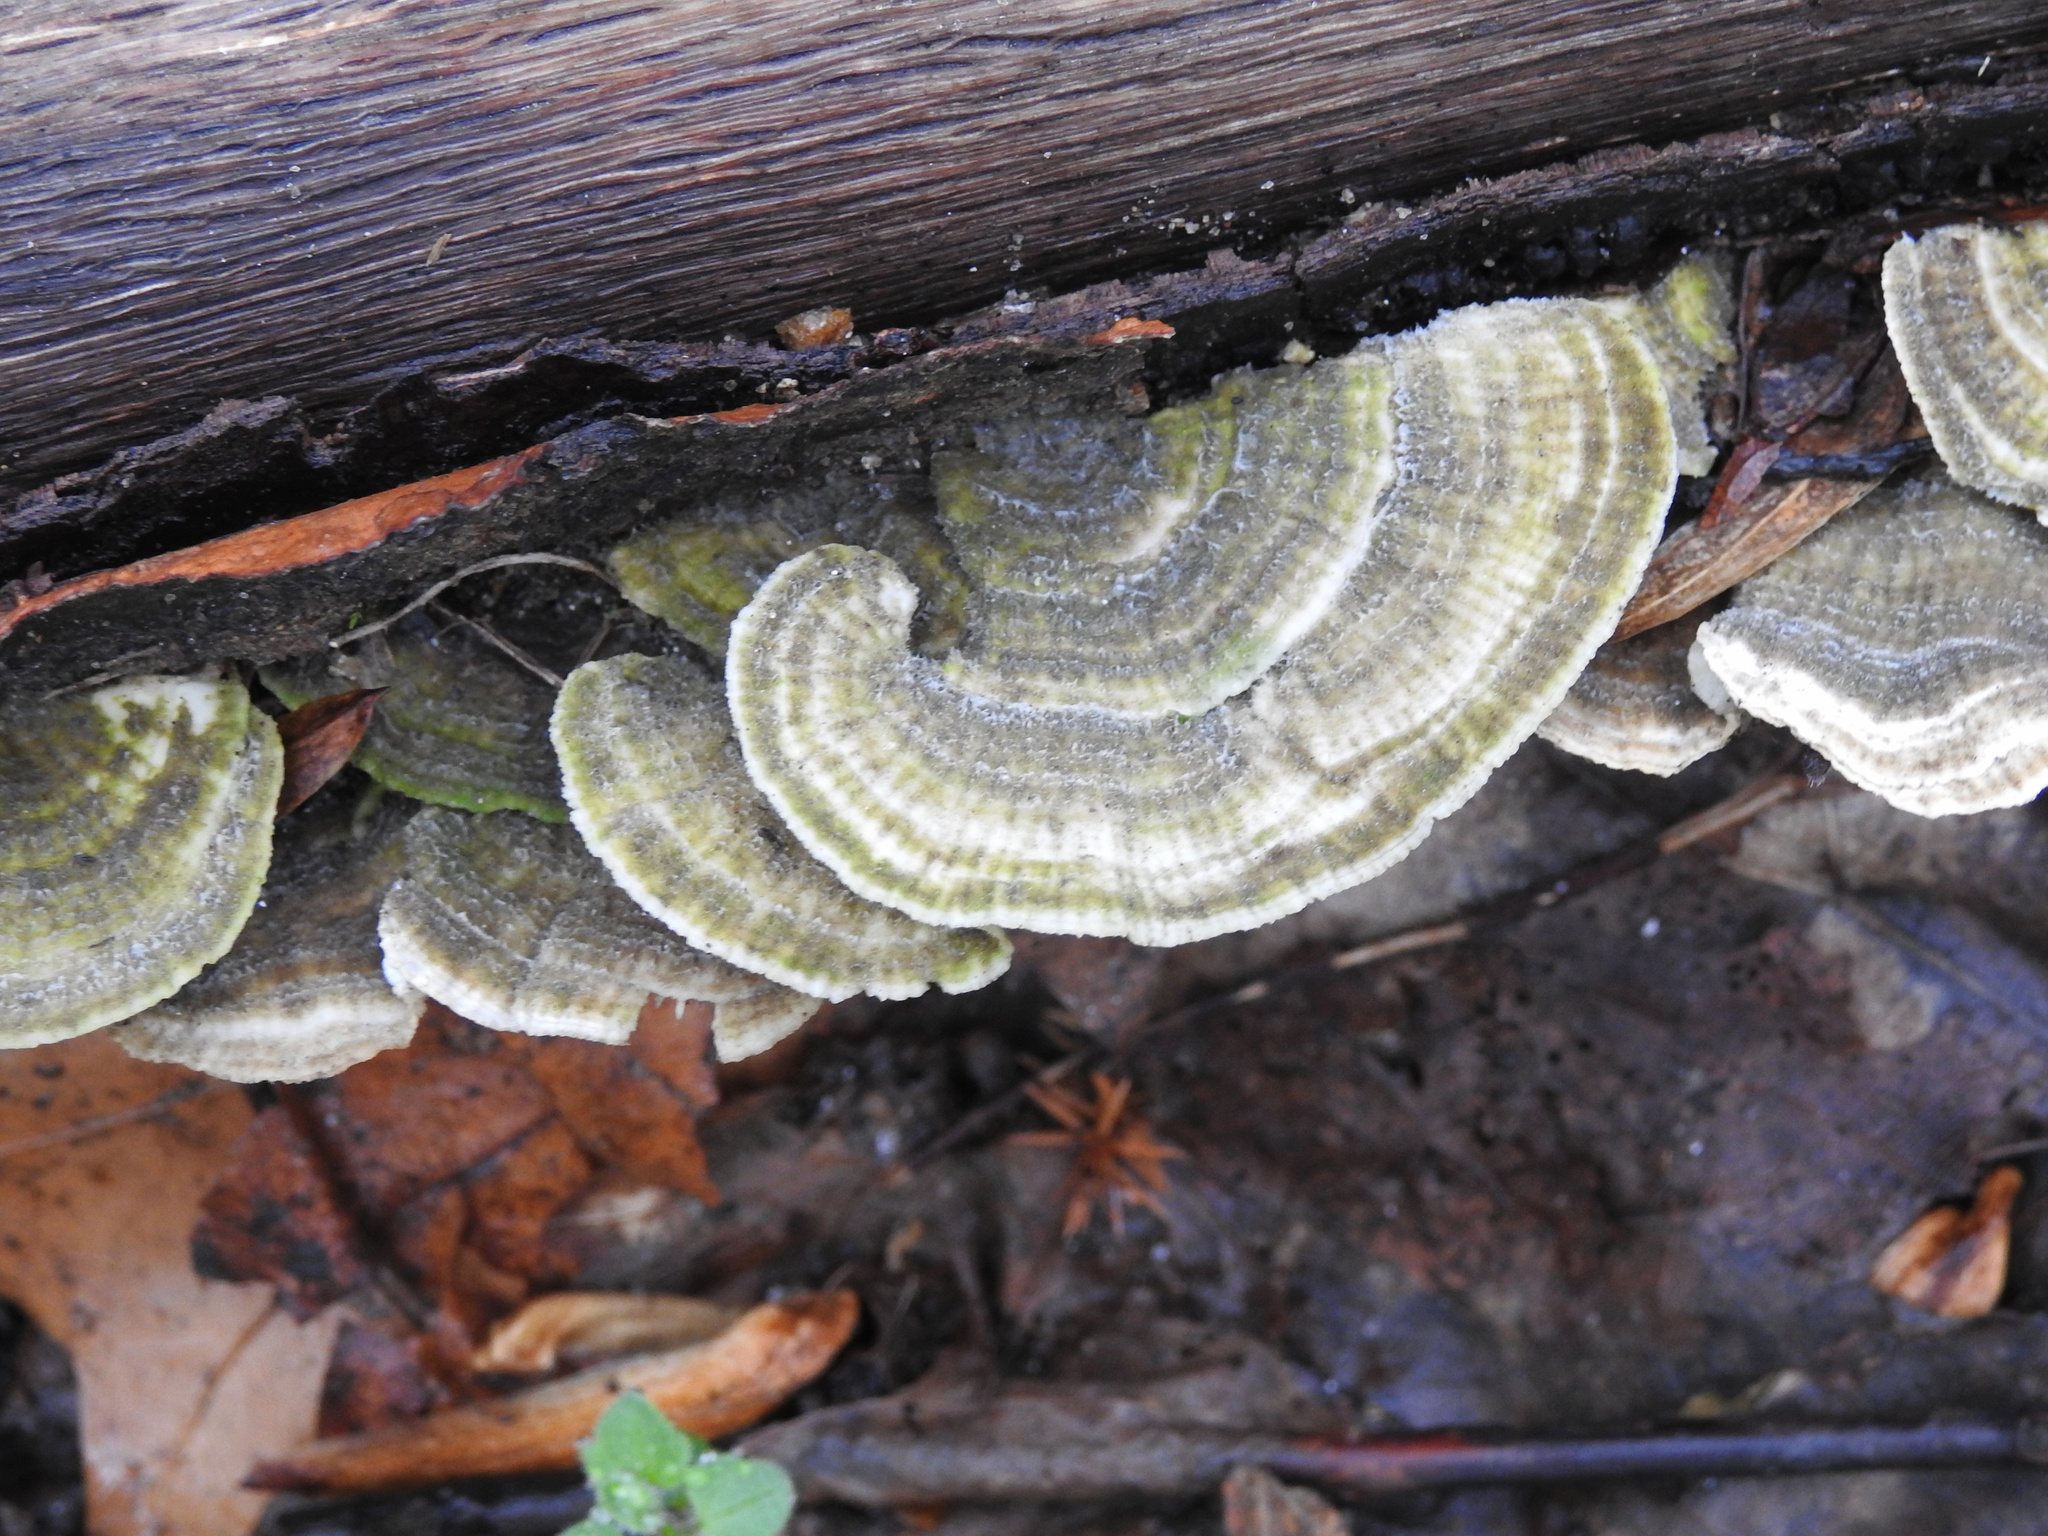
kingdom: Fungi
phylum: Basidiomycota
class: Agaricomycetes
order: Polyporales
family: Polyporaceae
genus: Lenzites
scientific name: Lenzites betulinus
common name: Birch mazegill
